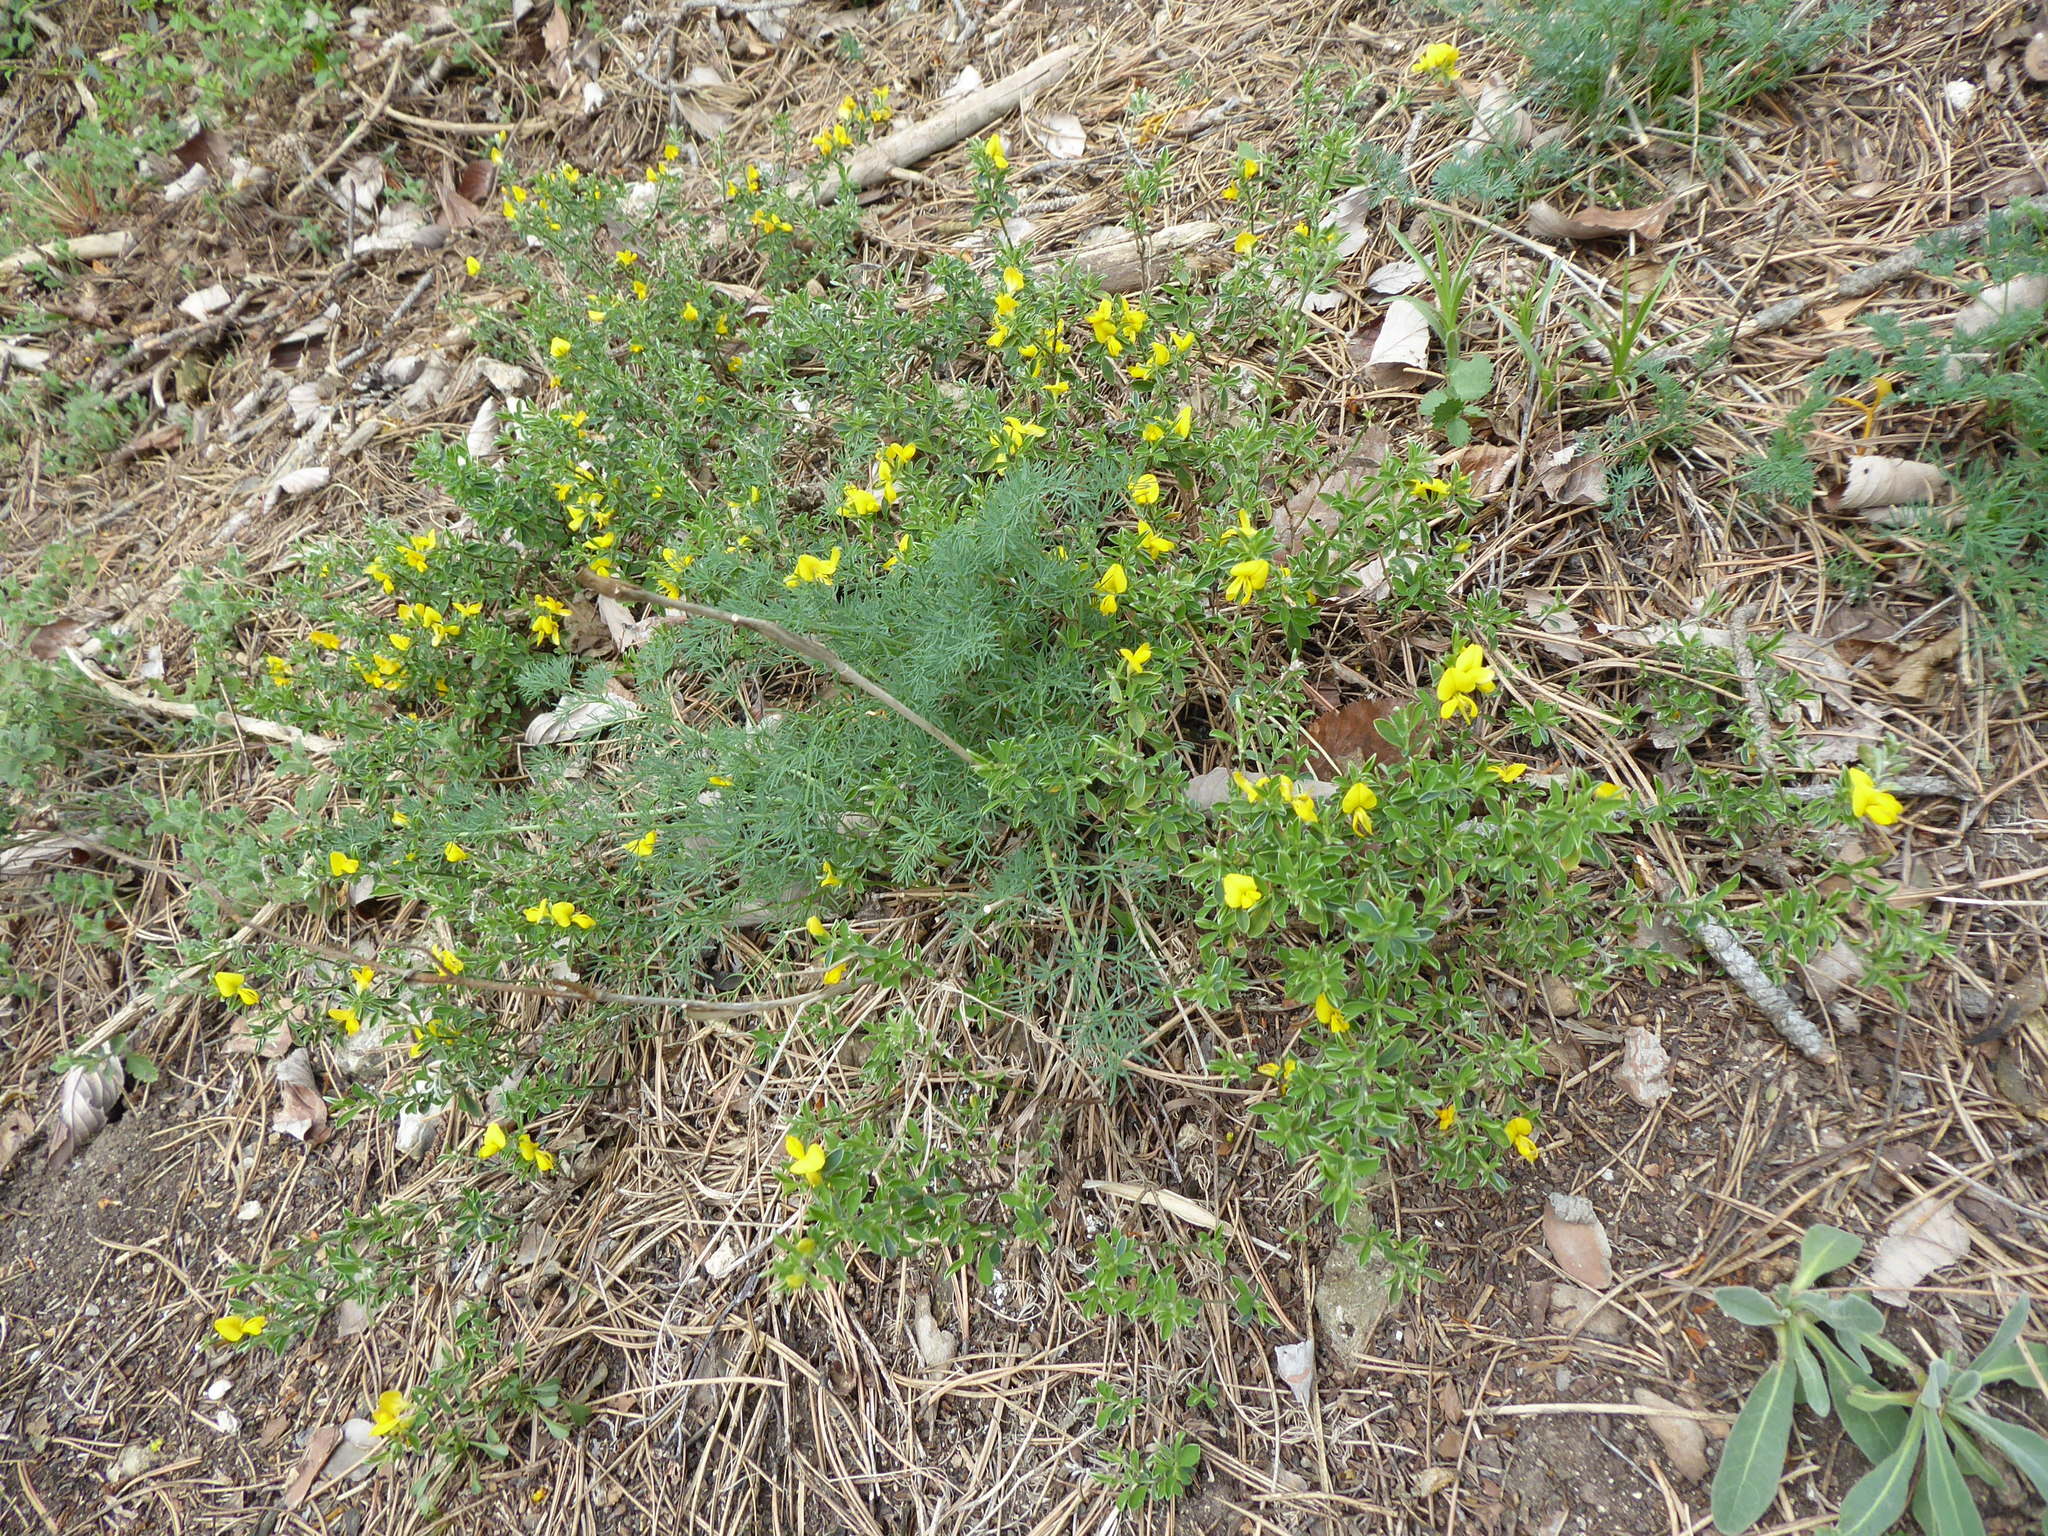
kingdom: Plantae
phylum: Tracheophyta
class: Magnoliopsida
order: Fabales
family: Fabaceae
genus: Genista
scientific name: Genista pilosa
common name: Hairy greenweed
